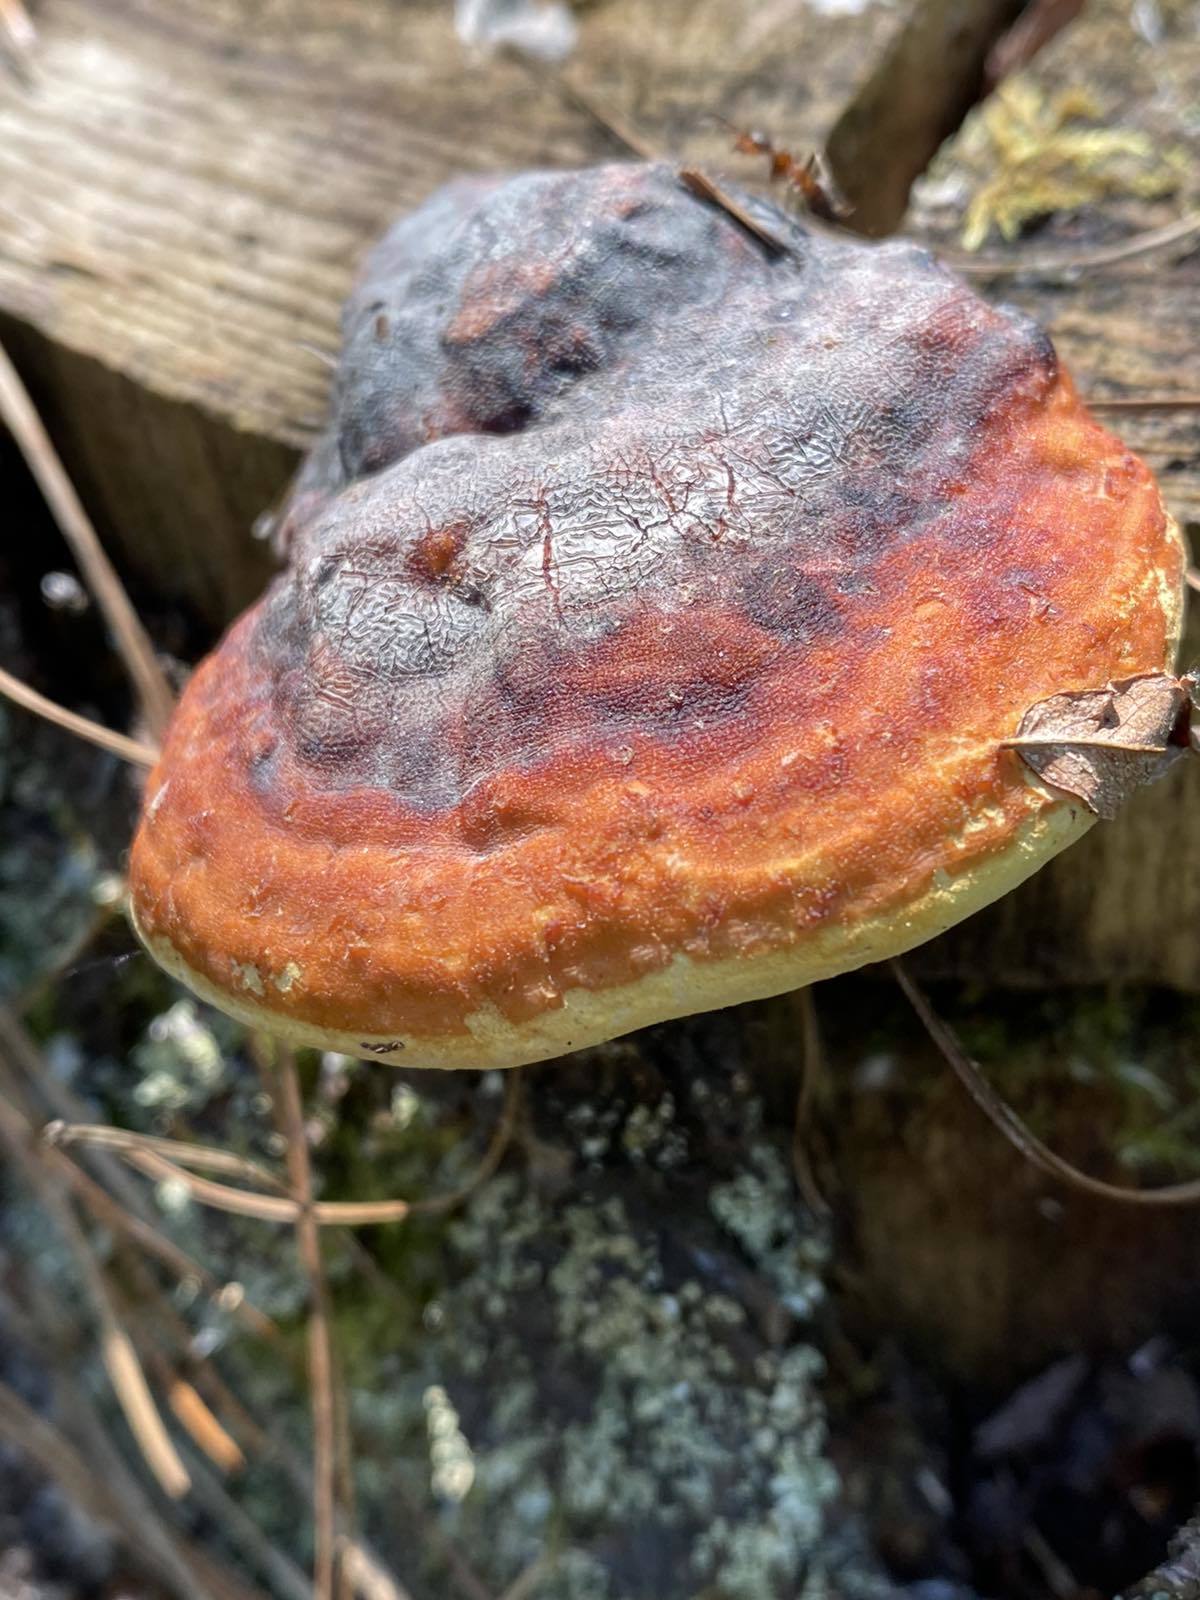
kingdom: Fungi
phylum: Basidiomycota
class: Agaricomycetes
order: Polyporales
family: Fomitopsidaceae
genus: Fomitopsis
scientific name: Fomitopsis pinicola
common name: Red-belted bracket
